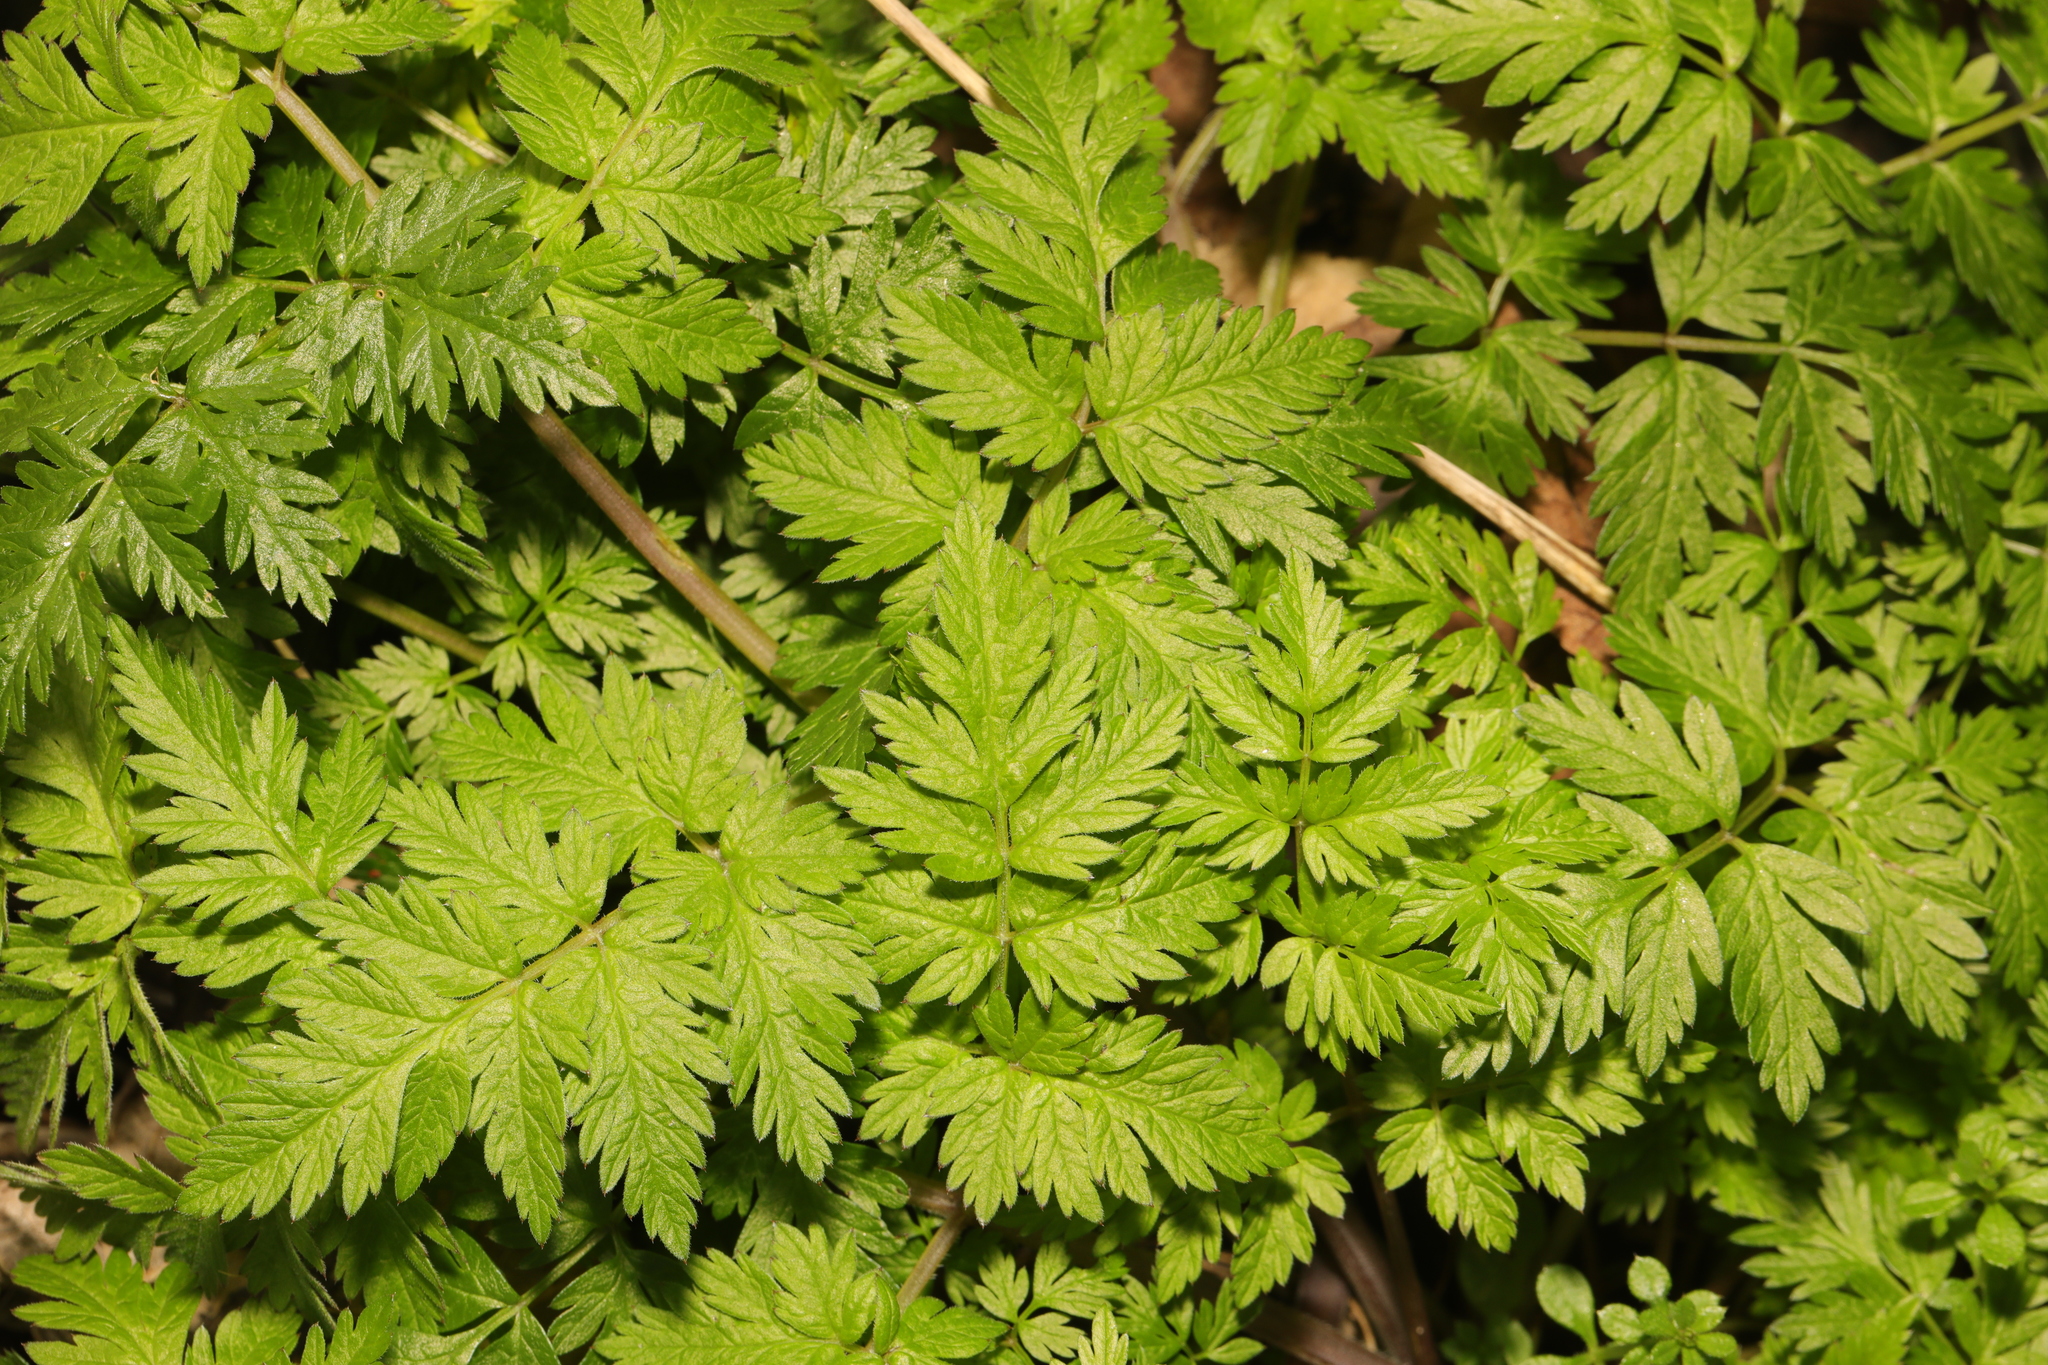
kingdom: Plantae
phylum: Tracheophyta
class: Magnoliopsida
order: Apiales
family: Apiaceae
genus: Anthriscus
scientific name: Anthriscus sylvestris
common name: Cow parsley
